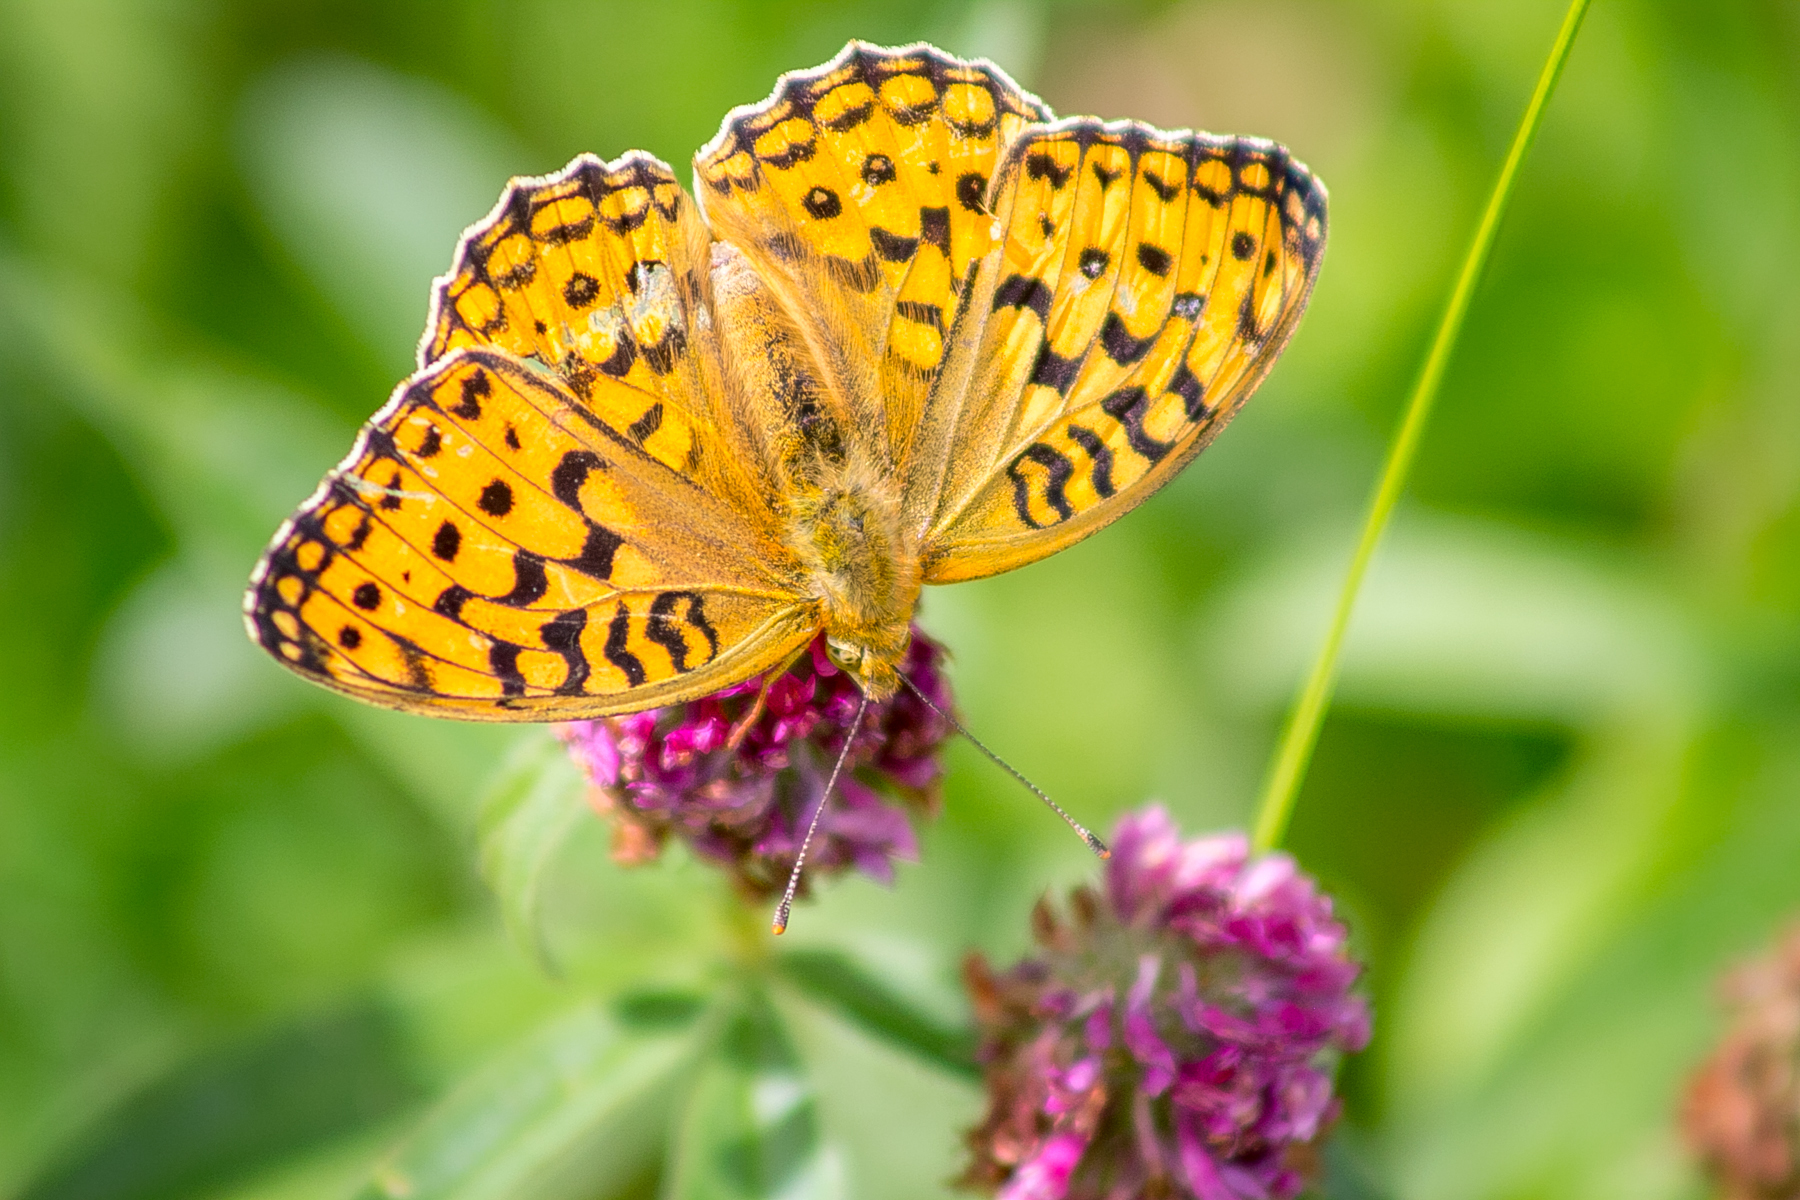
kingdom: Animalia
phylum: Arthropoda
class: Insecta
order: Lepidoptera
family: Nymphalidae
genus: Fabriciana
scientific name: Fabriciana adippe
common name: High brown fritillary
